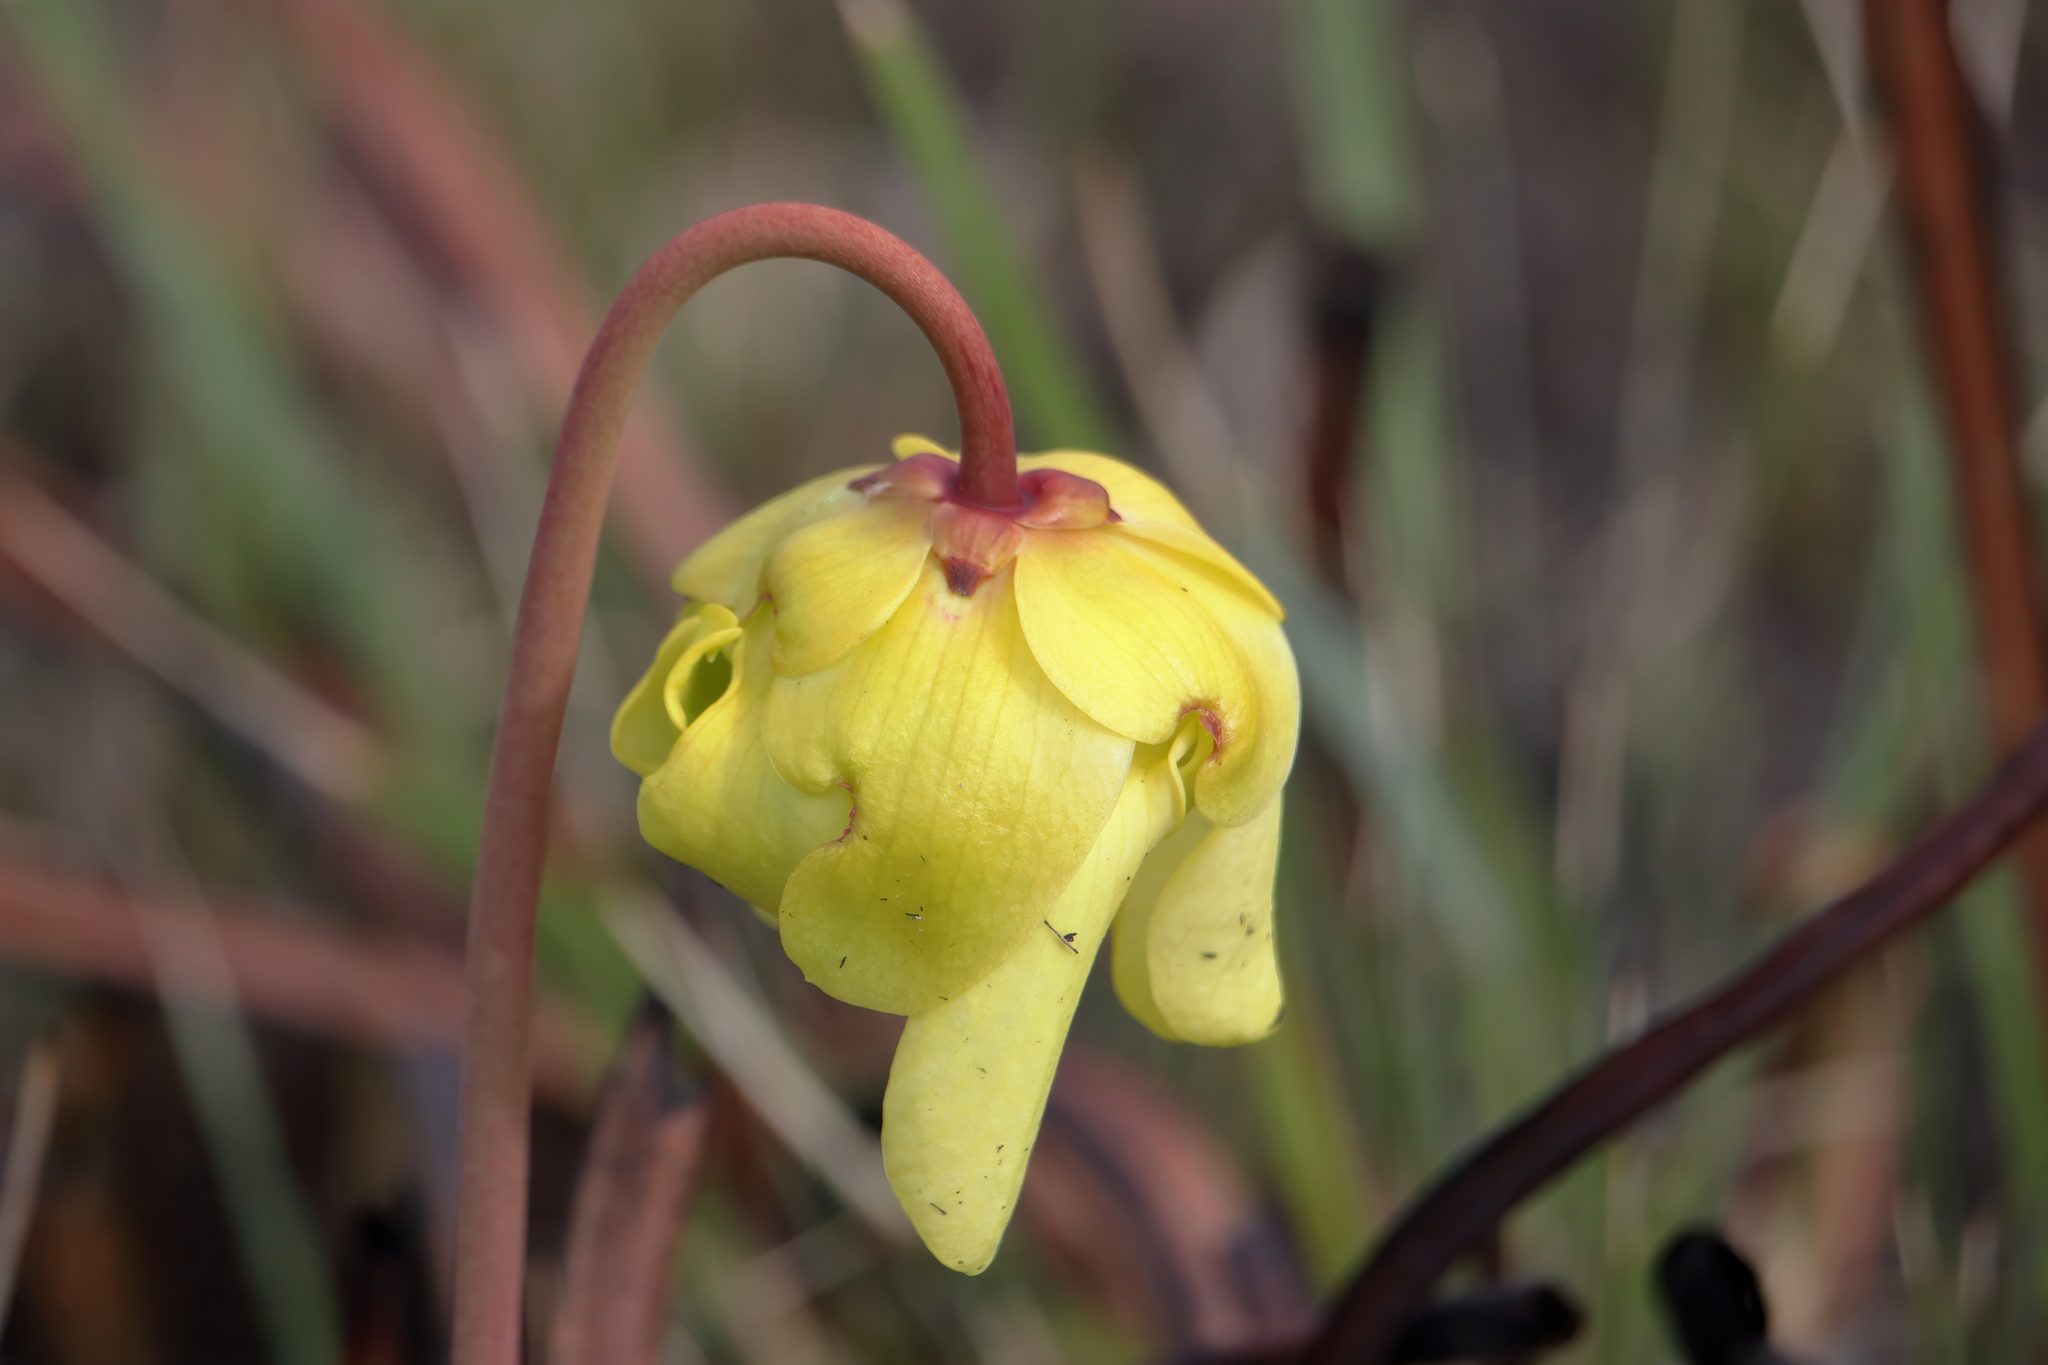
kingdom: Plantae
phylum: Tracheophyta
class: Magnoliopsida
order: Ericales
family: Sarraceniaceae
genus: Sarracenia
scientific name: Sarracenia alata
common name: Yellow trumpets
